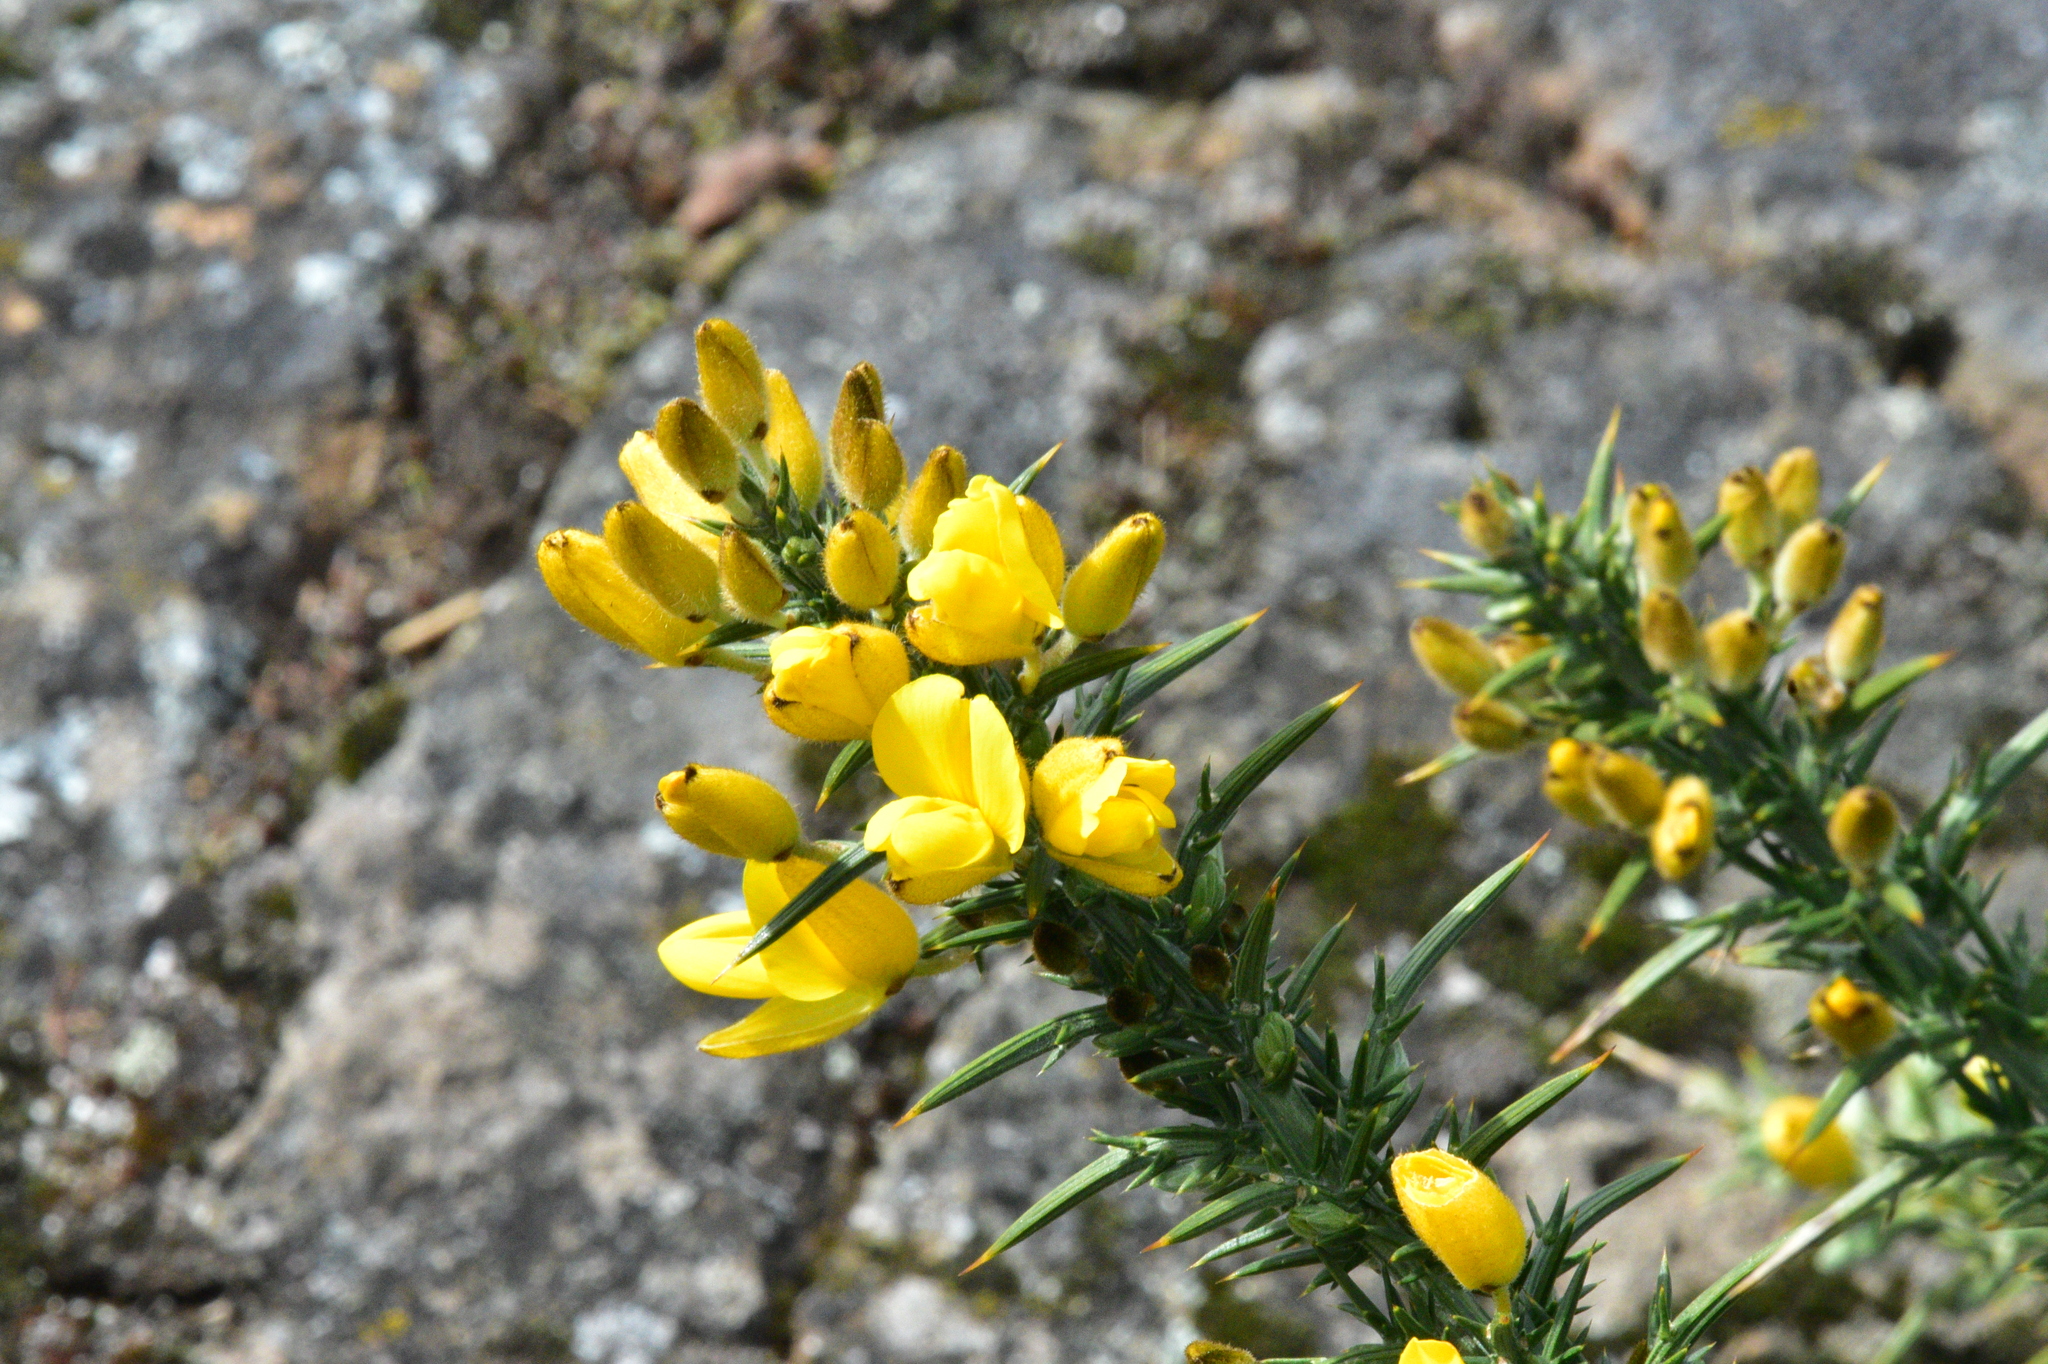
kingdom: Plantae
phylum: Tracheophyta
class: Magnoliopsida
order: Fabales
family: Fabaceae
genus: Ulex
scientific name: Ulex europaeus
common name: Common gorse
